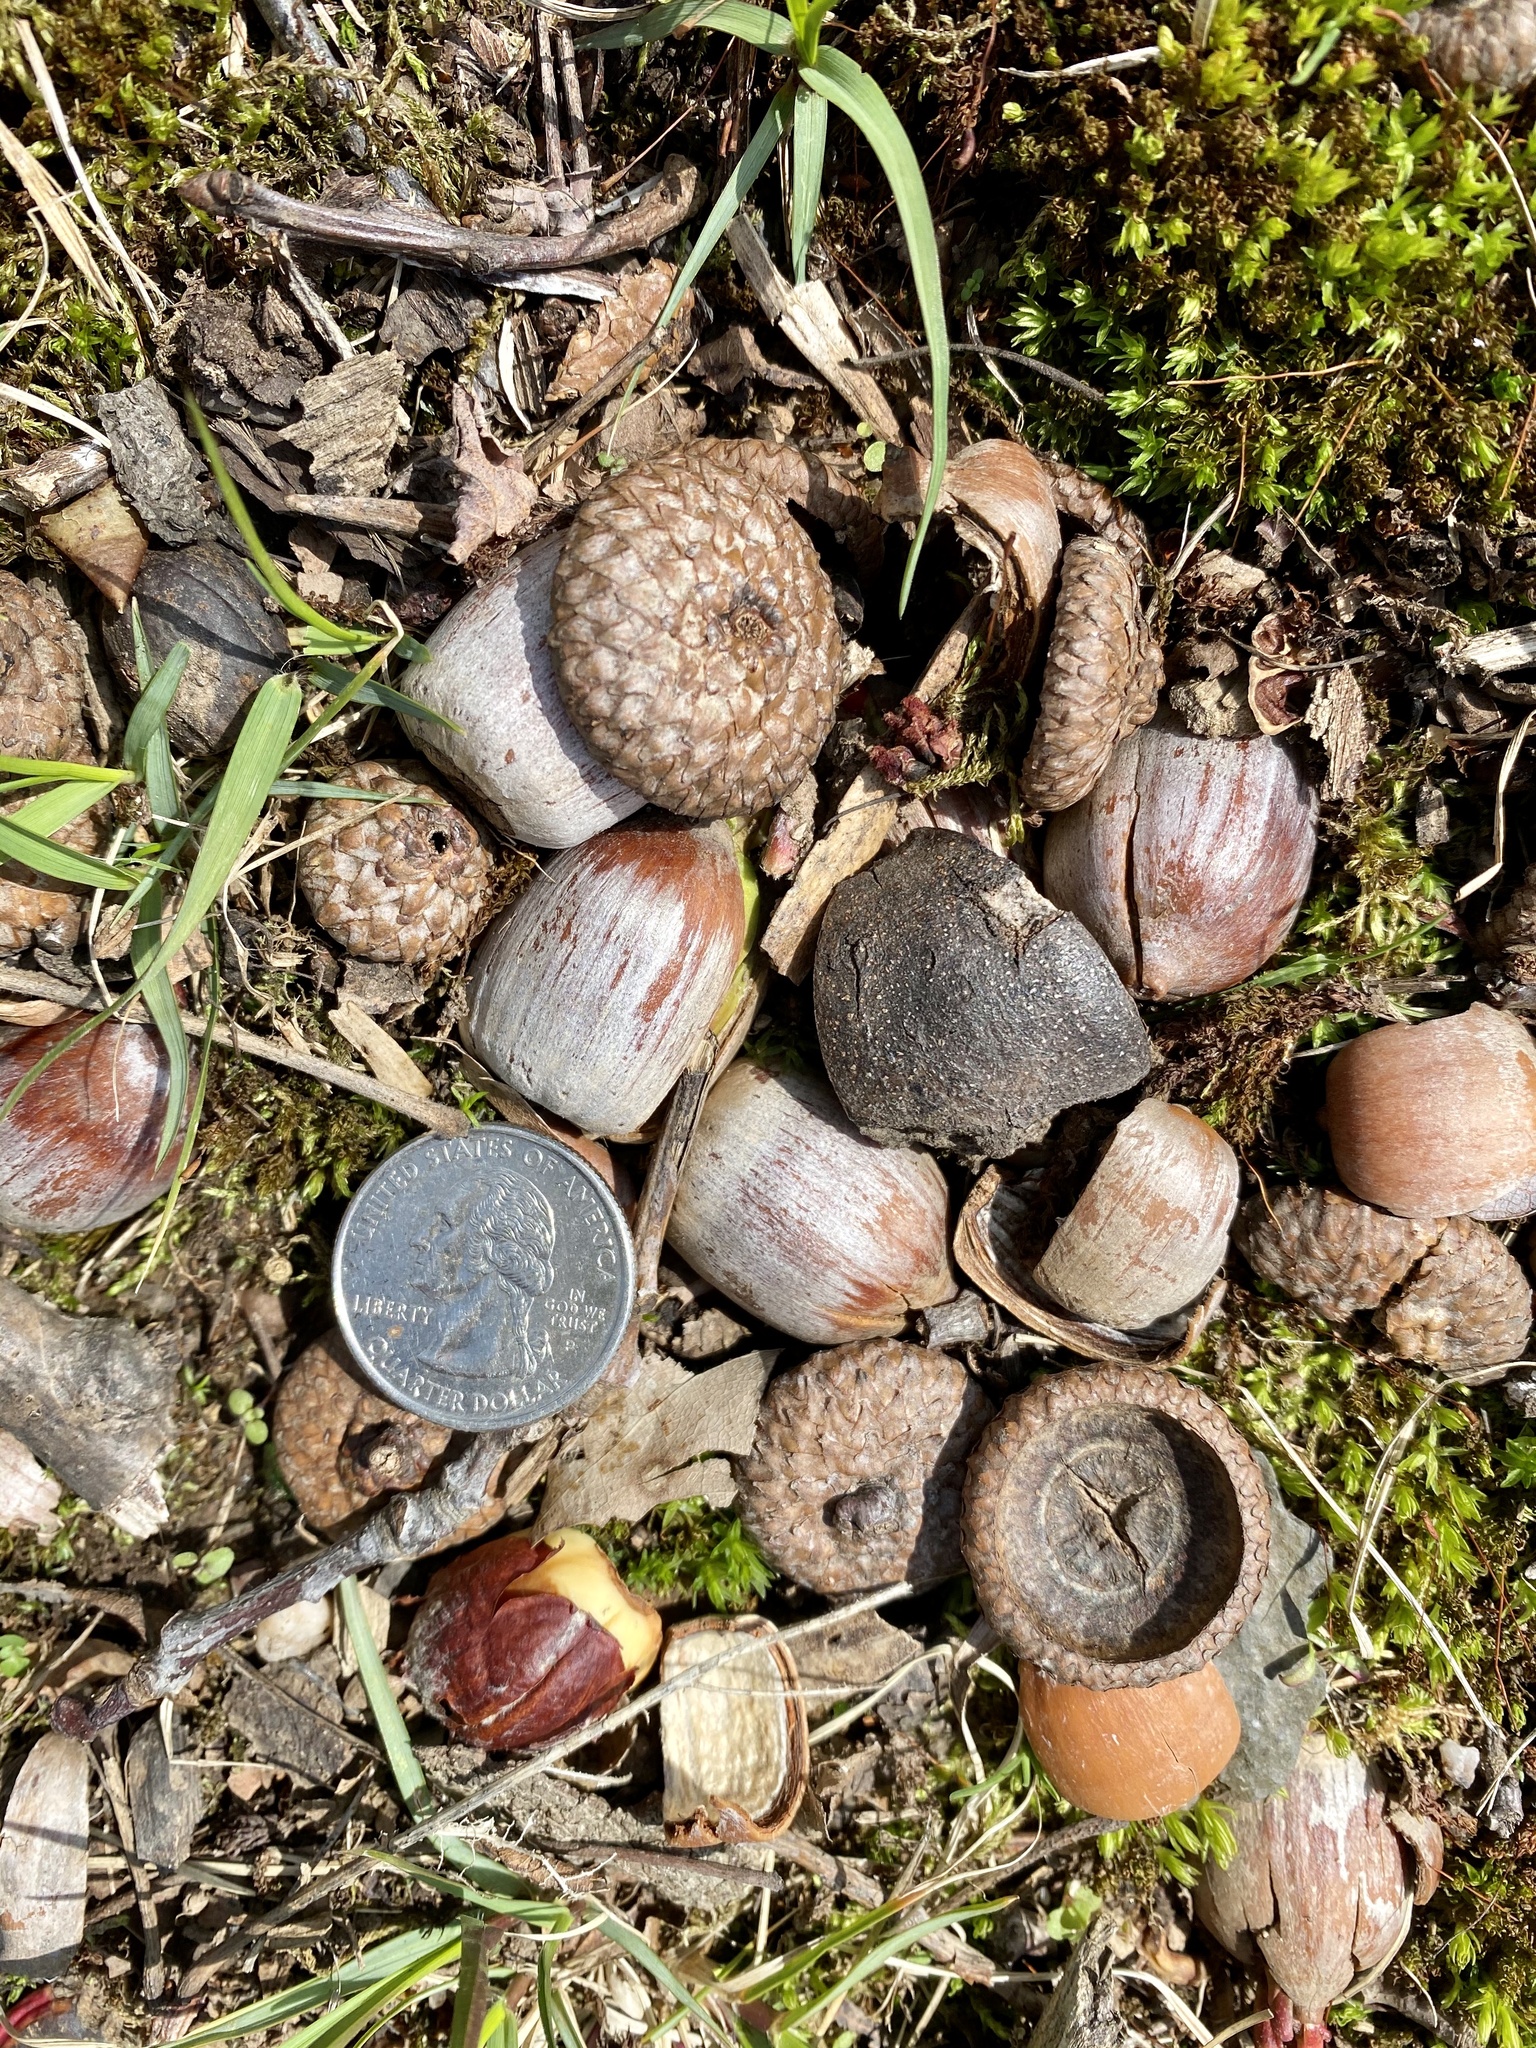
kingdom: Plantae
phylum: Tracheophyta
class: Magnoliopsida
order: Fagales
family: Fagaceae
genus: Quercus
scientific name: Quercus rubra
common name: Red oak
